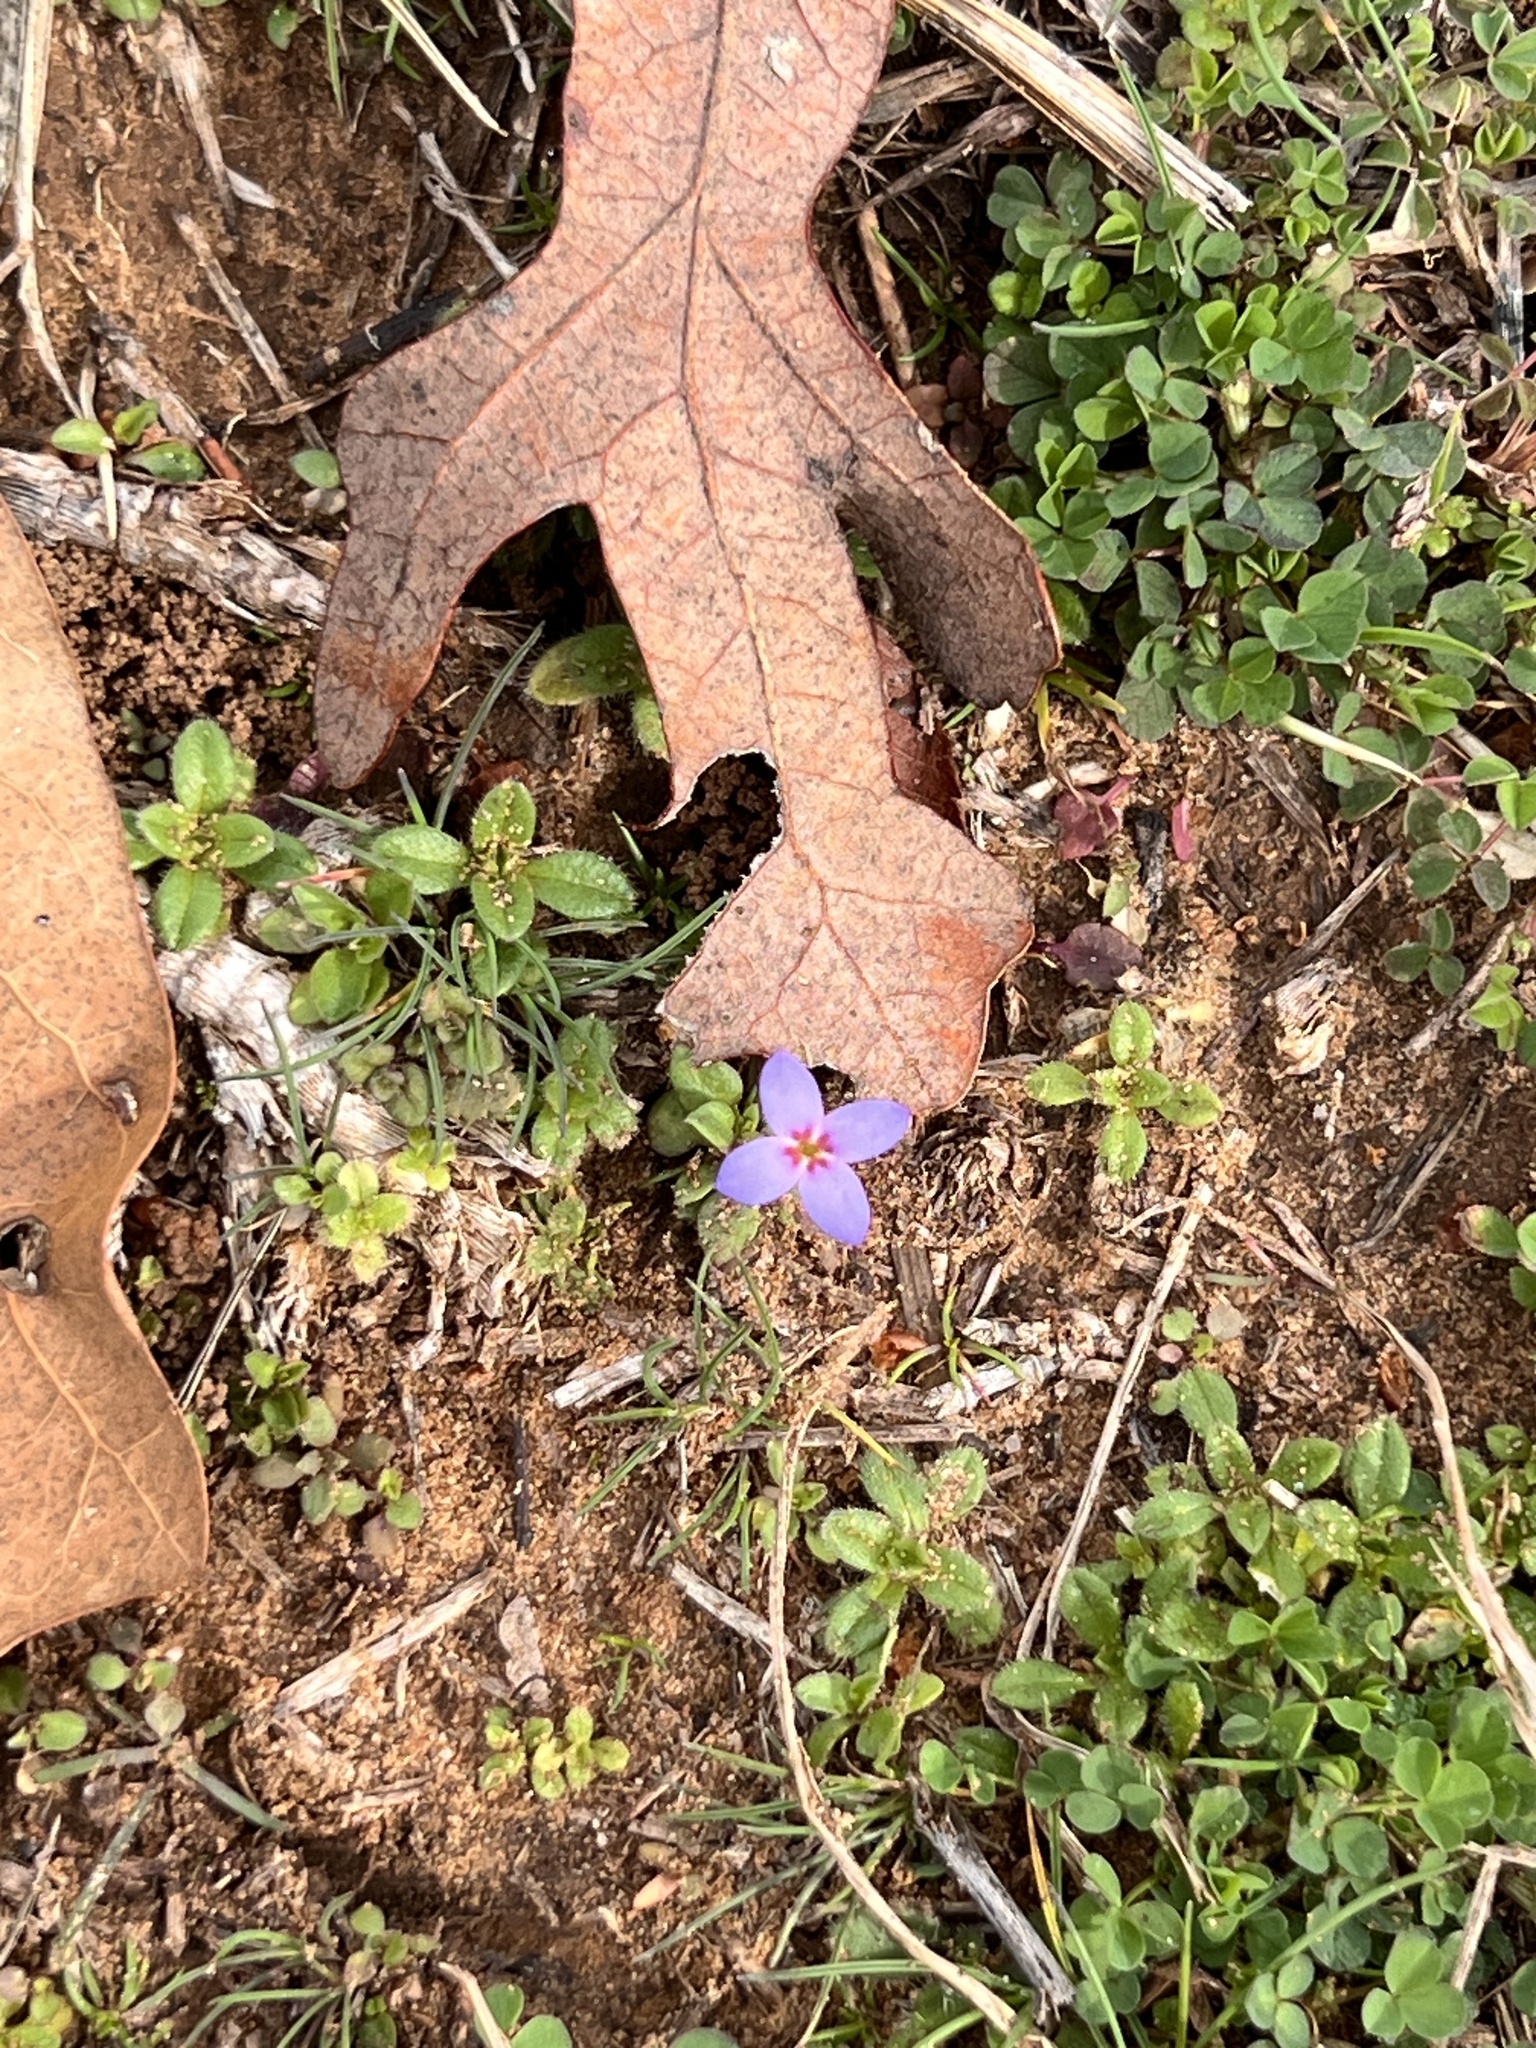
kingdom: Plantae
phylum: Tracheophyta
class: Magnoliopsida
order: Gentianales
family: Rubiaceae
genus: Houstonia
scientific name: Houstonia pusilla
